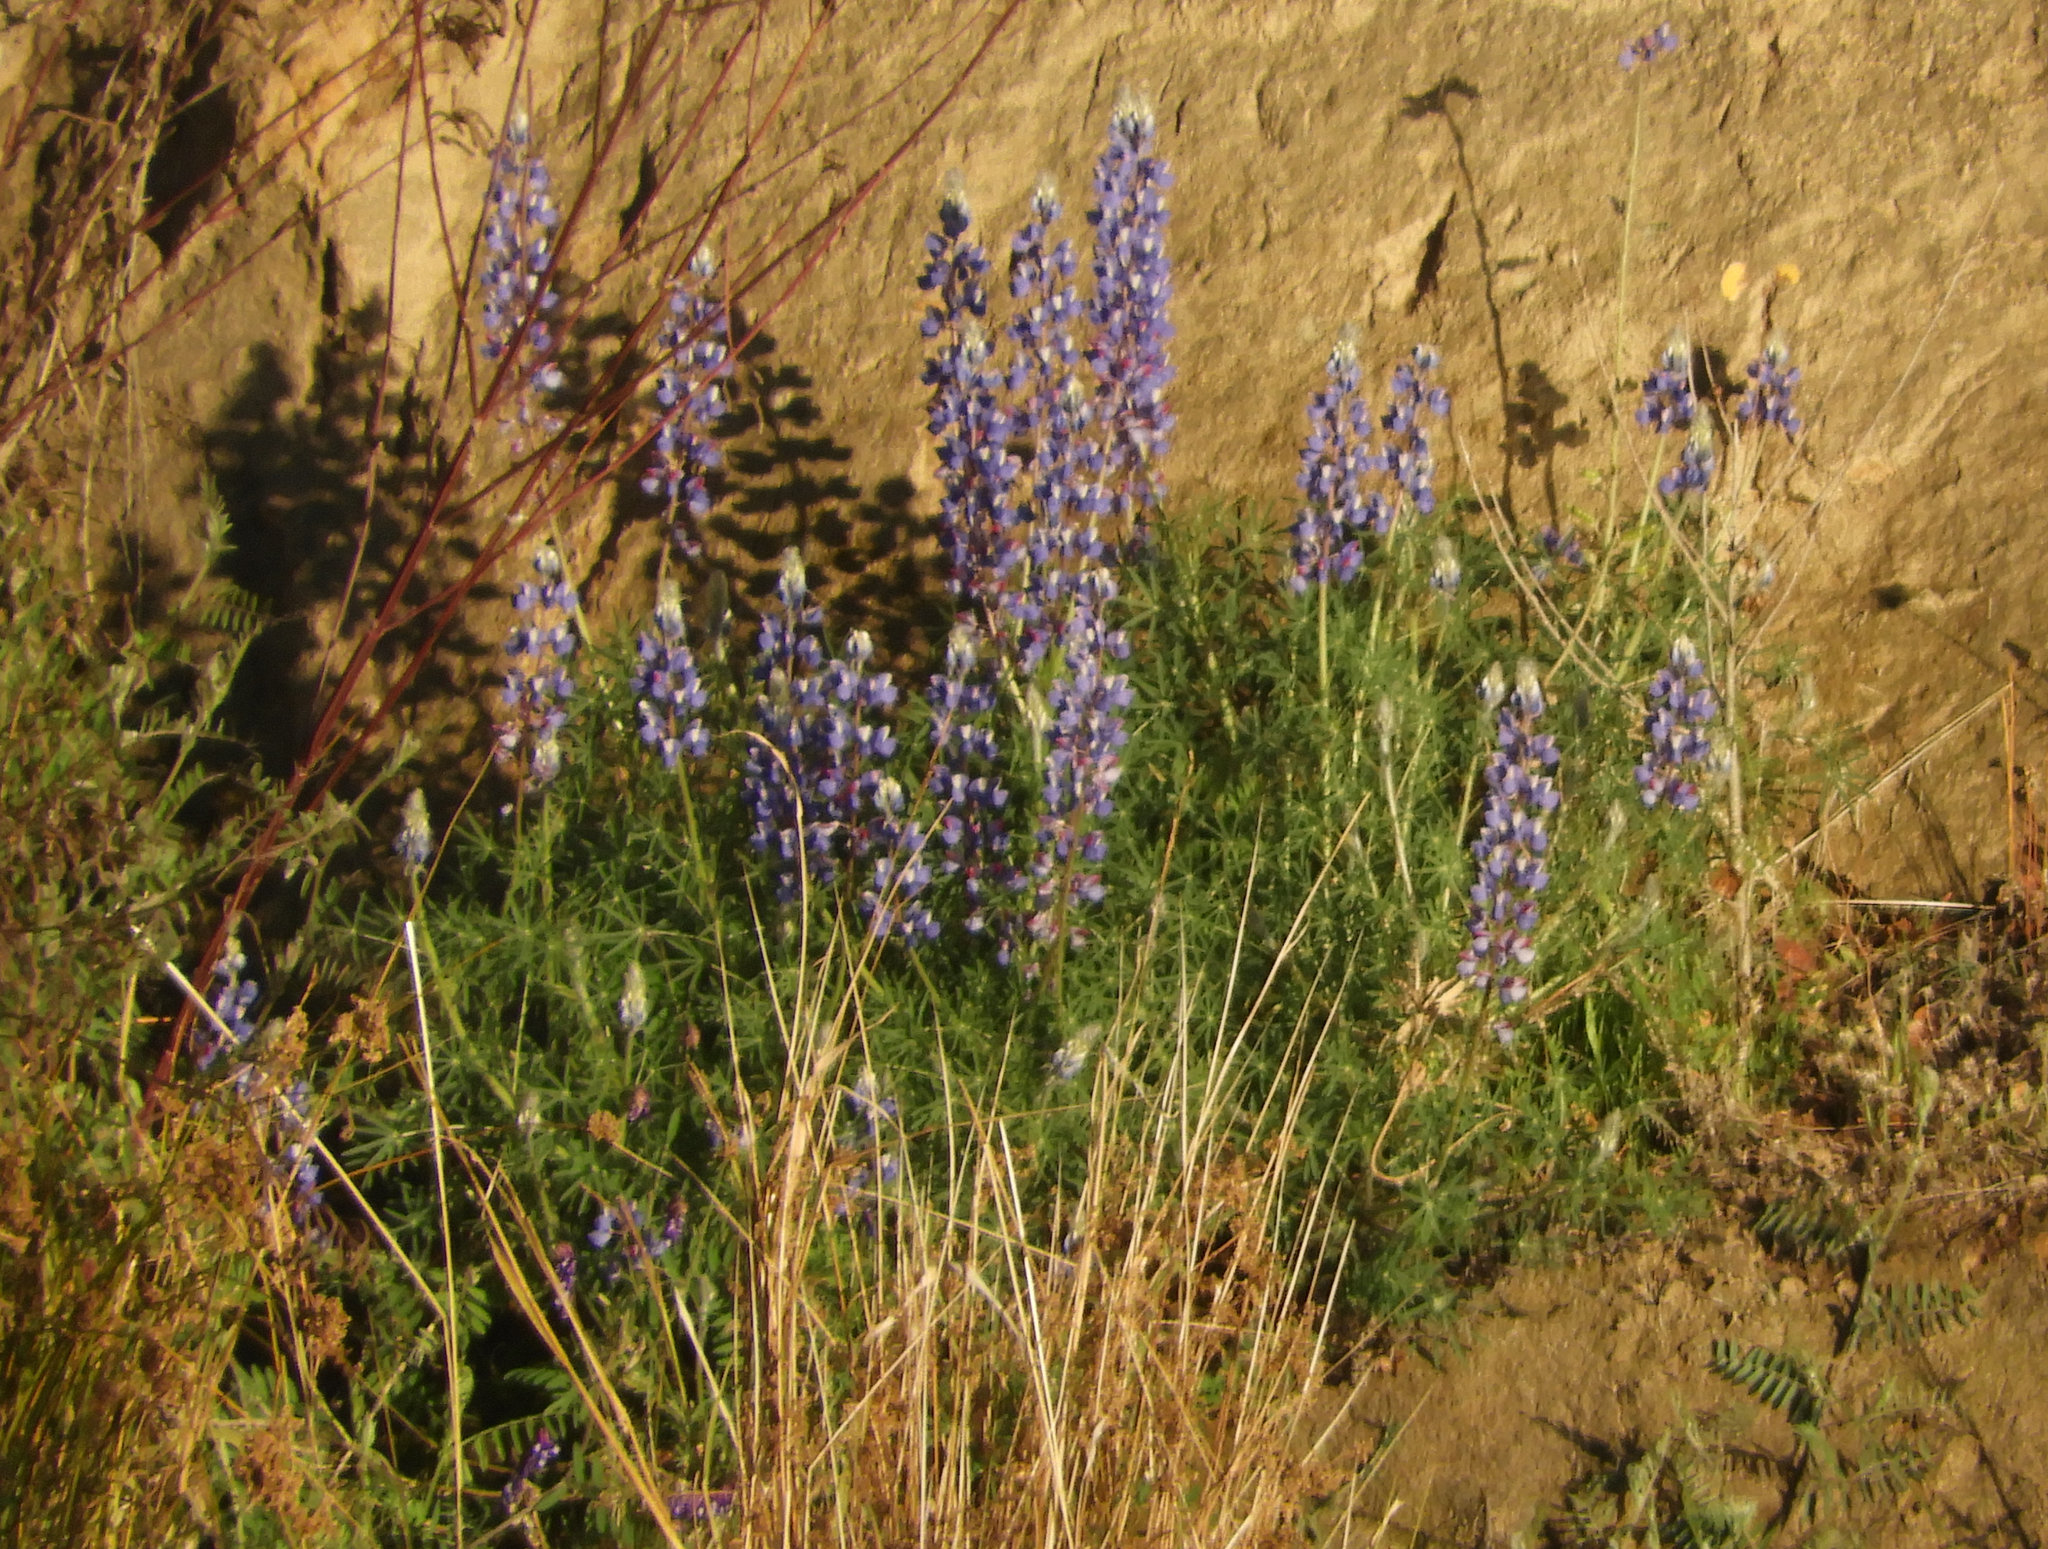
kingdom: Plantae
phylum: Tracheophyta
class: Magnoliopsida
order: Fabales
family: Fabaceae
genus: Lupinus
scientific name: Lupinus albifrons
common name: Foothill lupine
